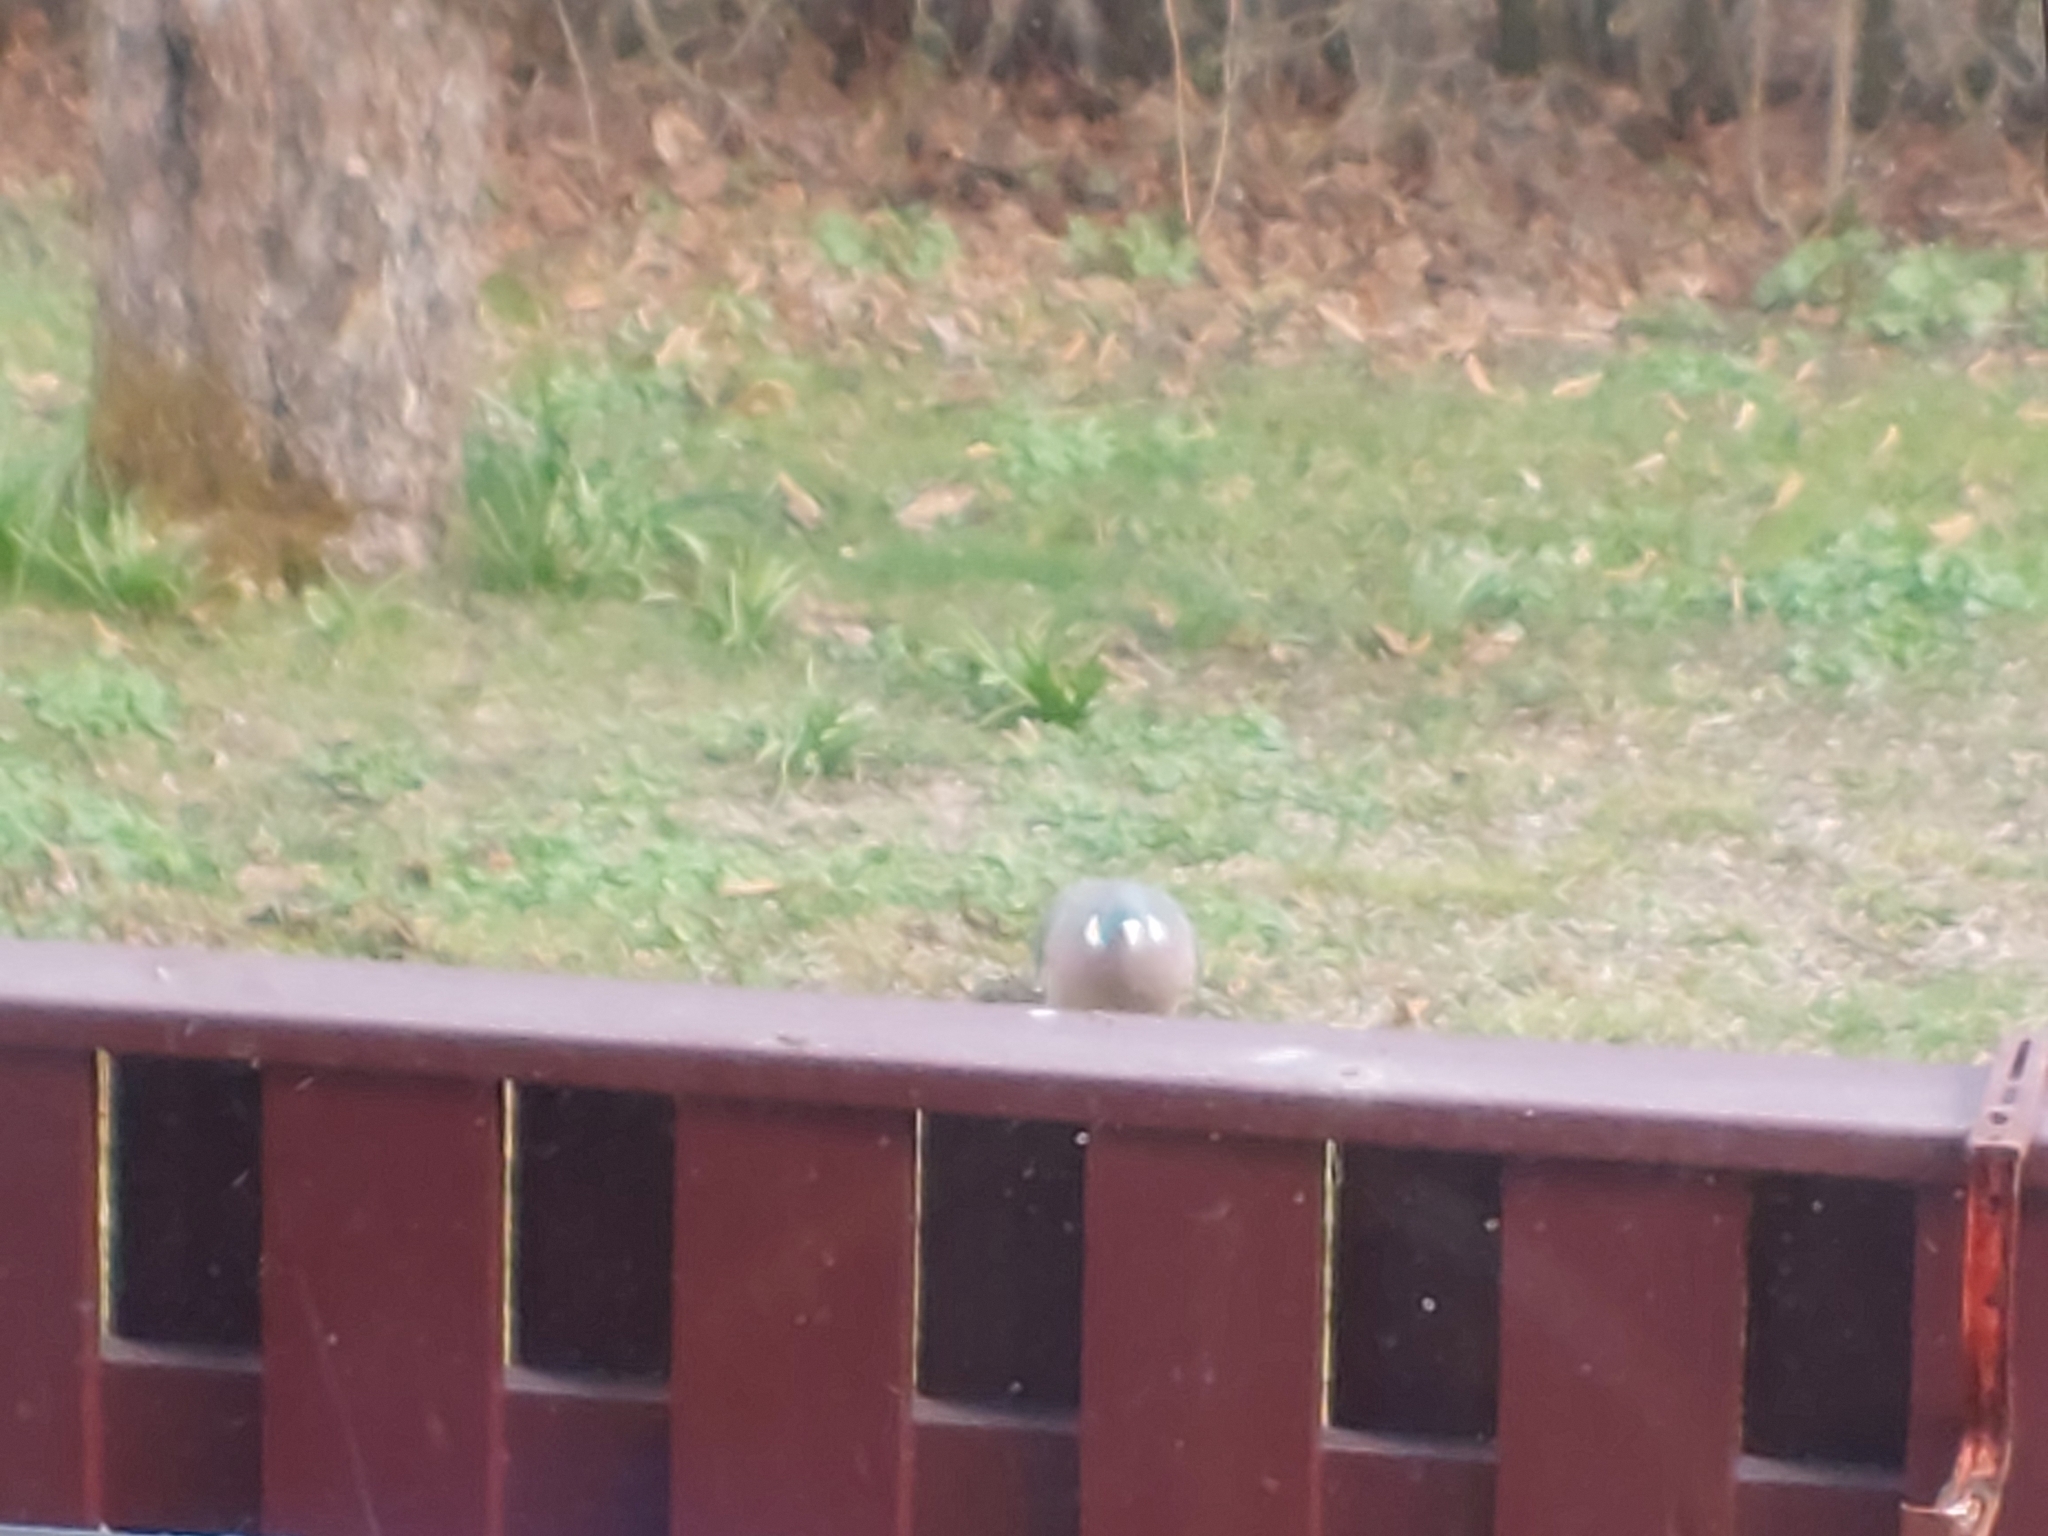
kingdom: Animalia
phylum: Chordata
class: Aves
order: Columbiformes
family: Columbidae
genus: Columba
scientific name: Columba palumbus
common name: Common wood pigeon
